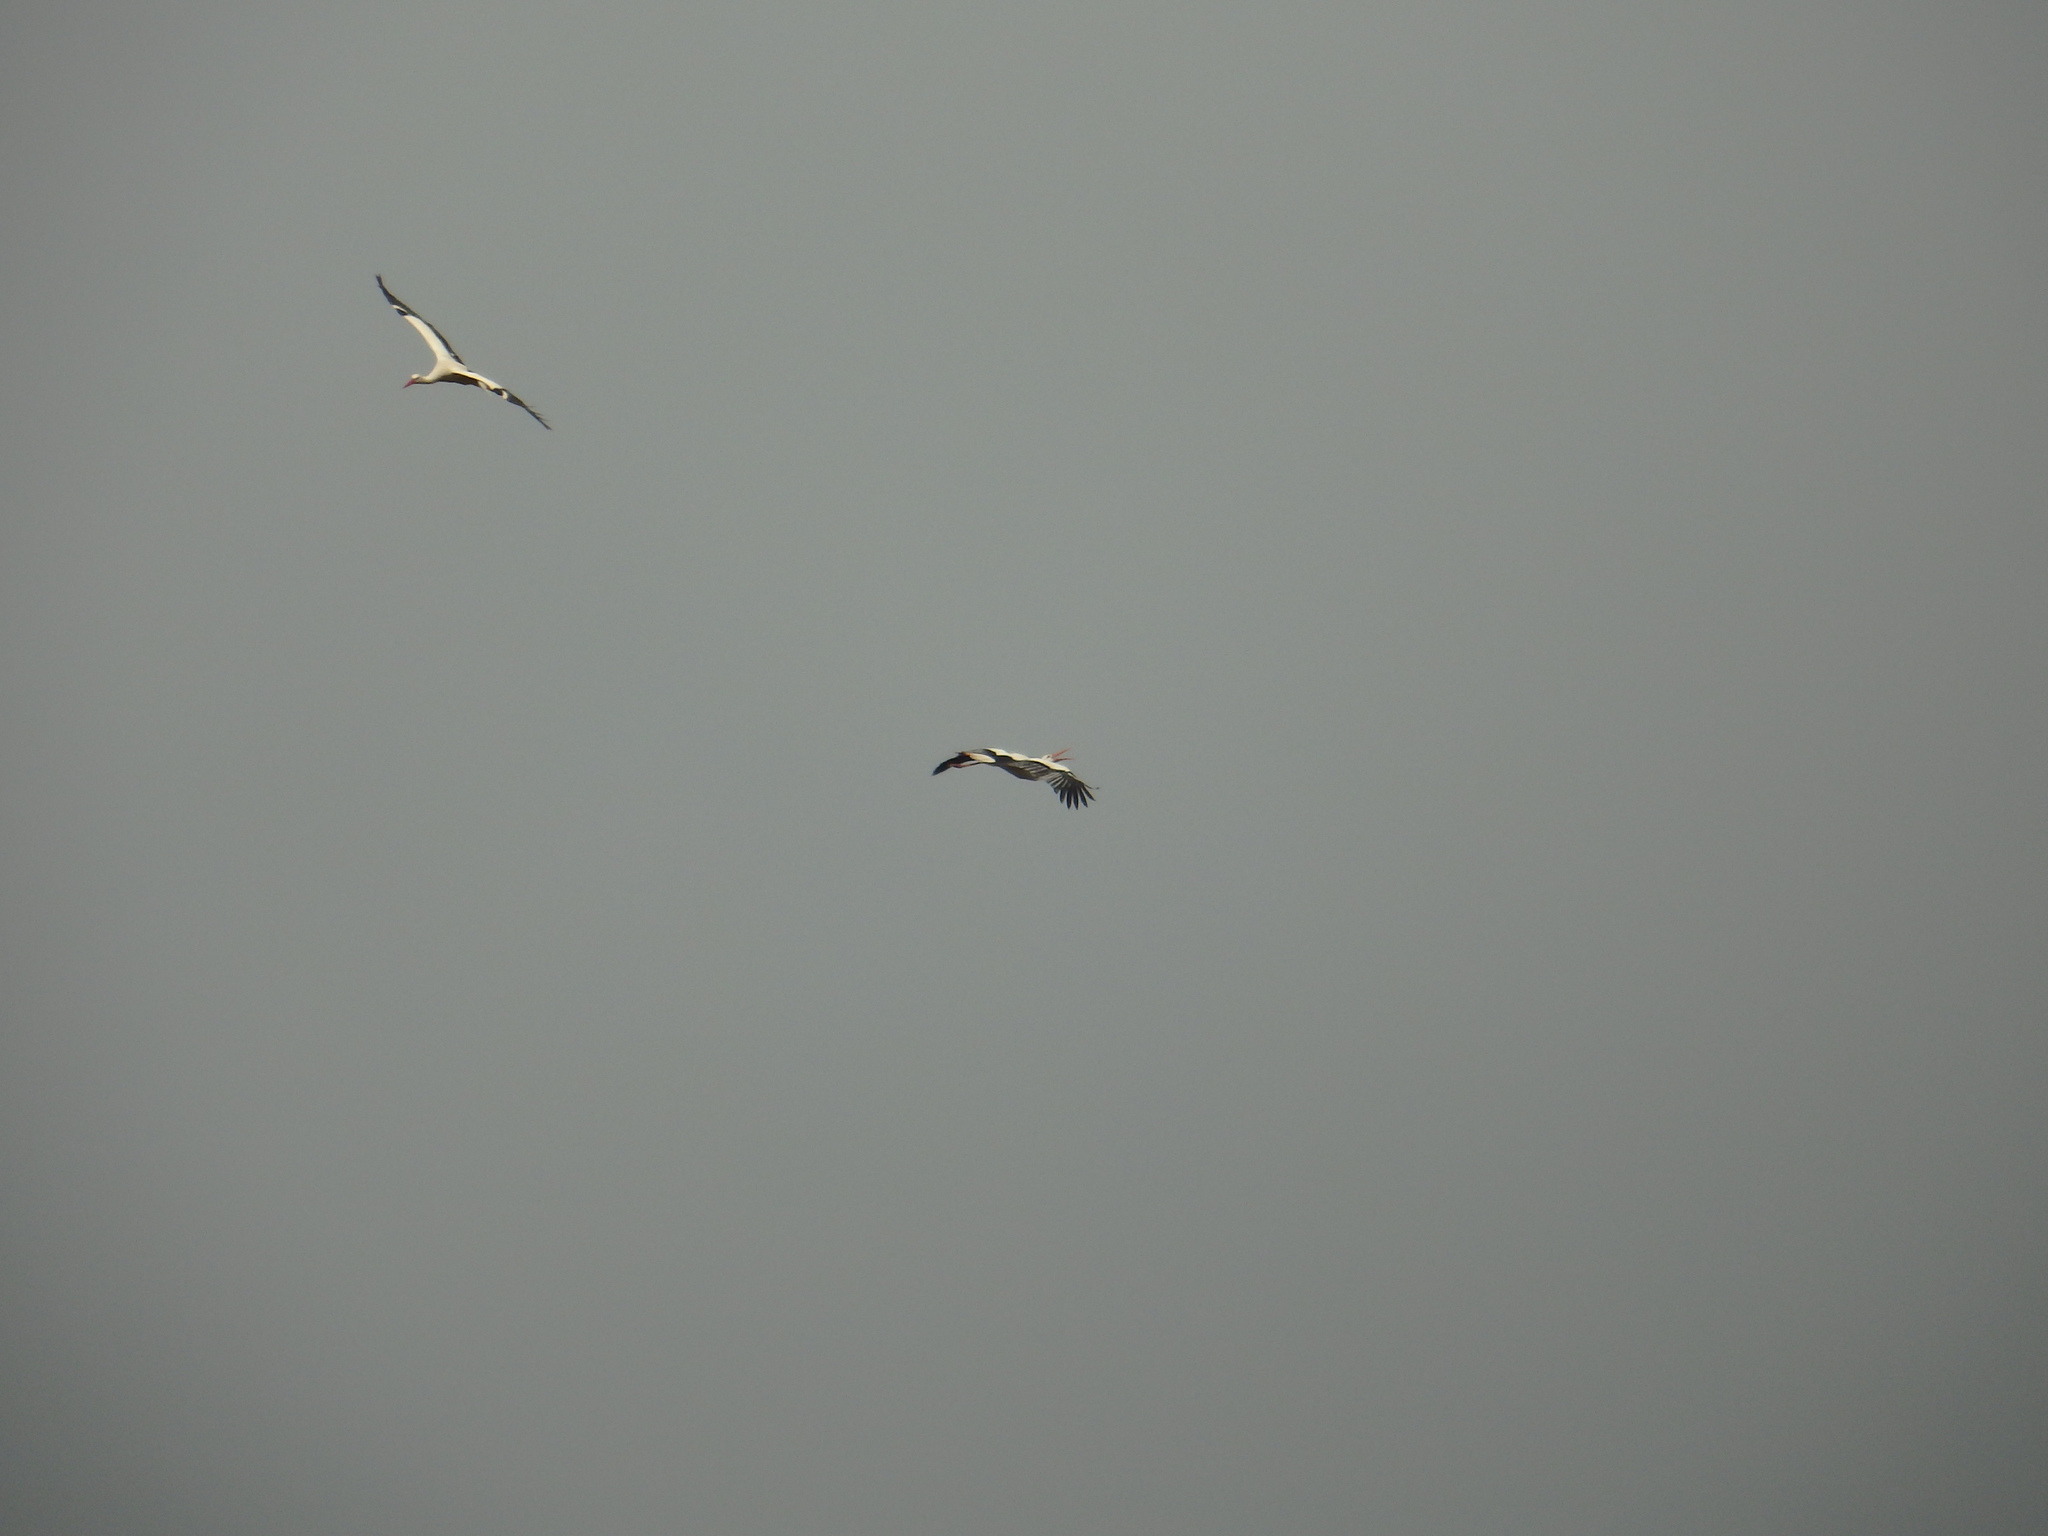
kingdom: Animalia
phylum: Chordata
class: Aves
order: Ciconiiformes
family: Ciconiidae
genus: Ciconia
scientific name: Ciconia ciconia
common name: White stork
